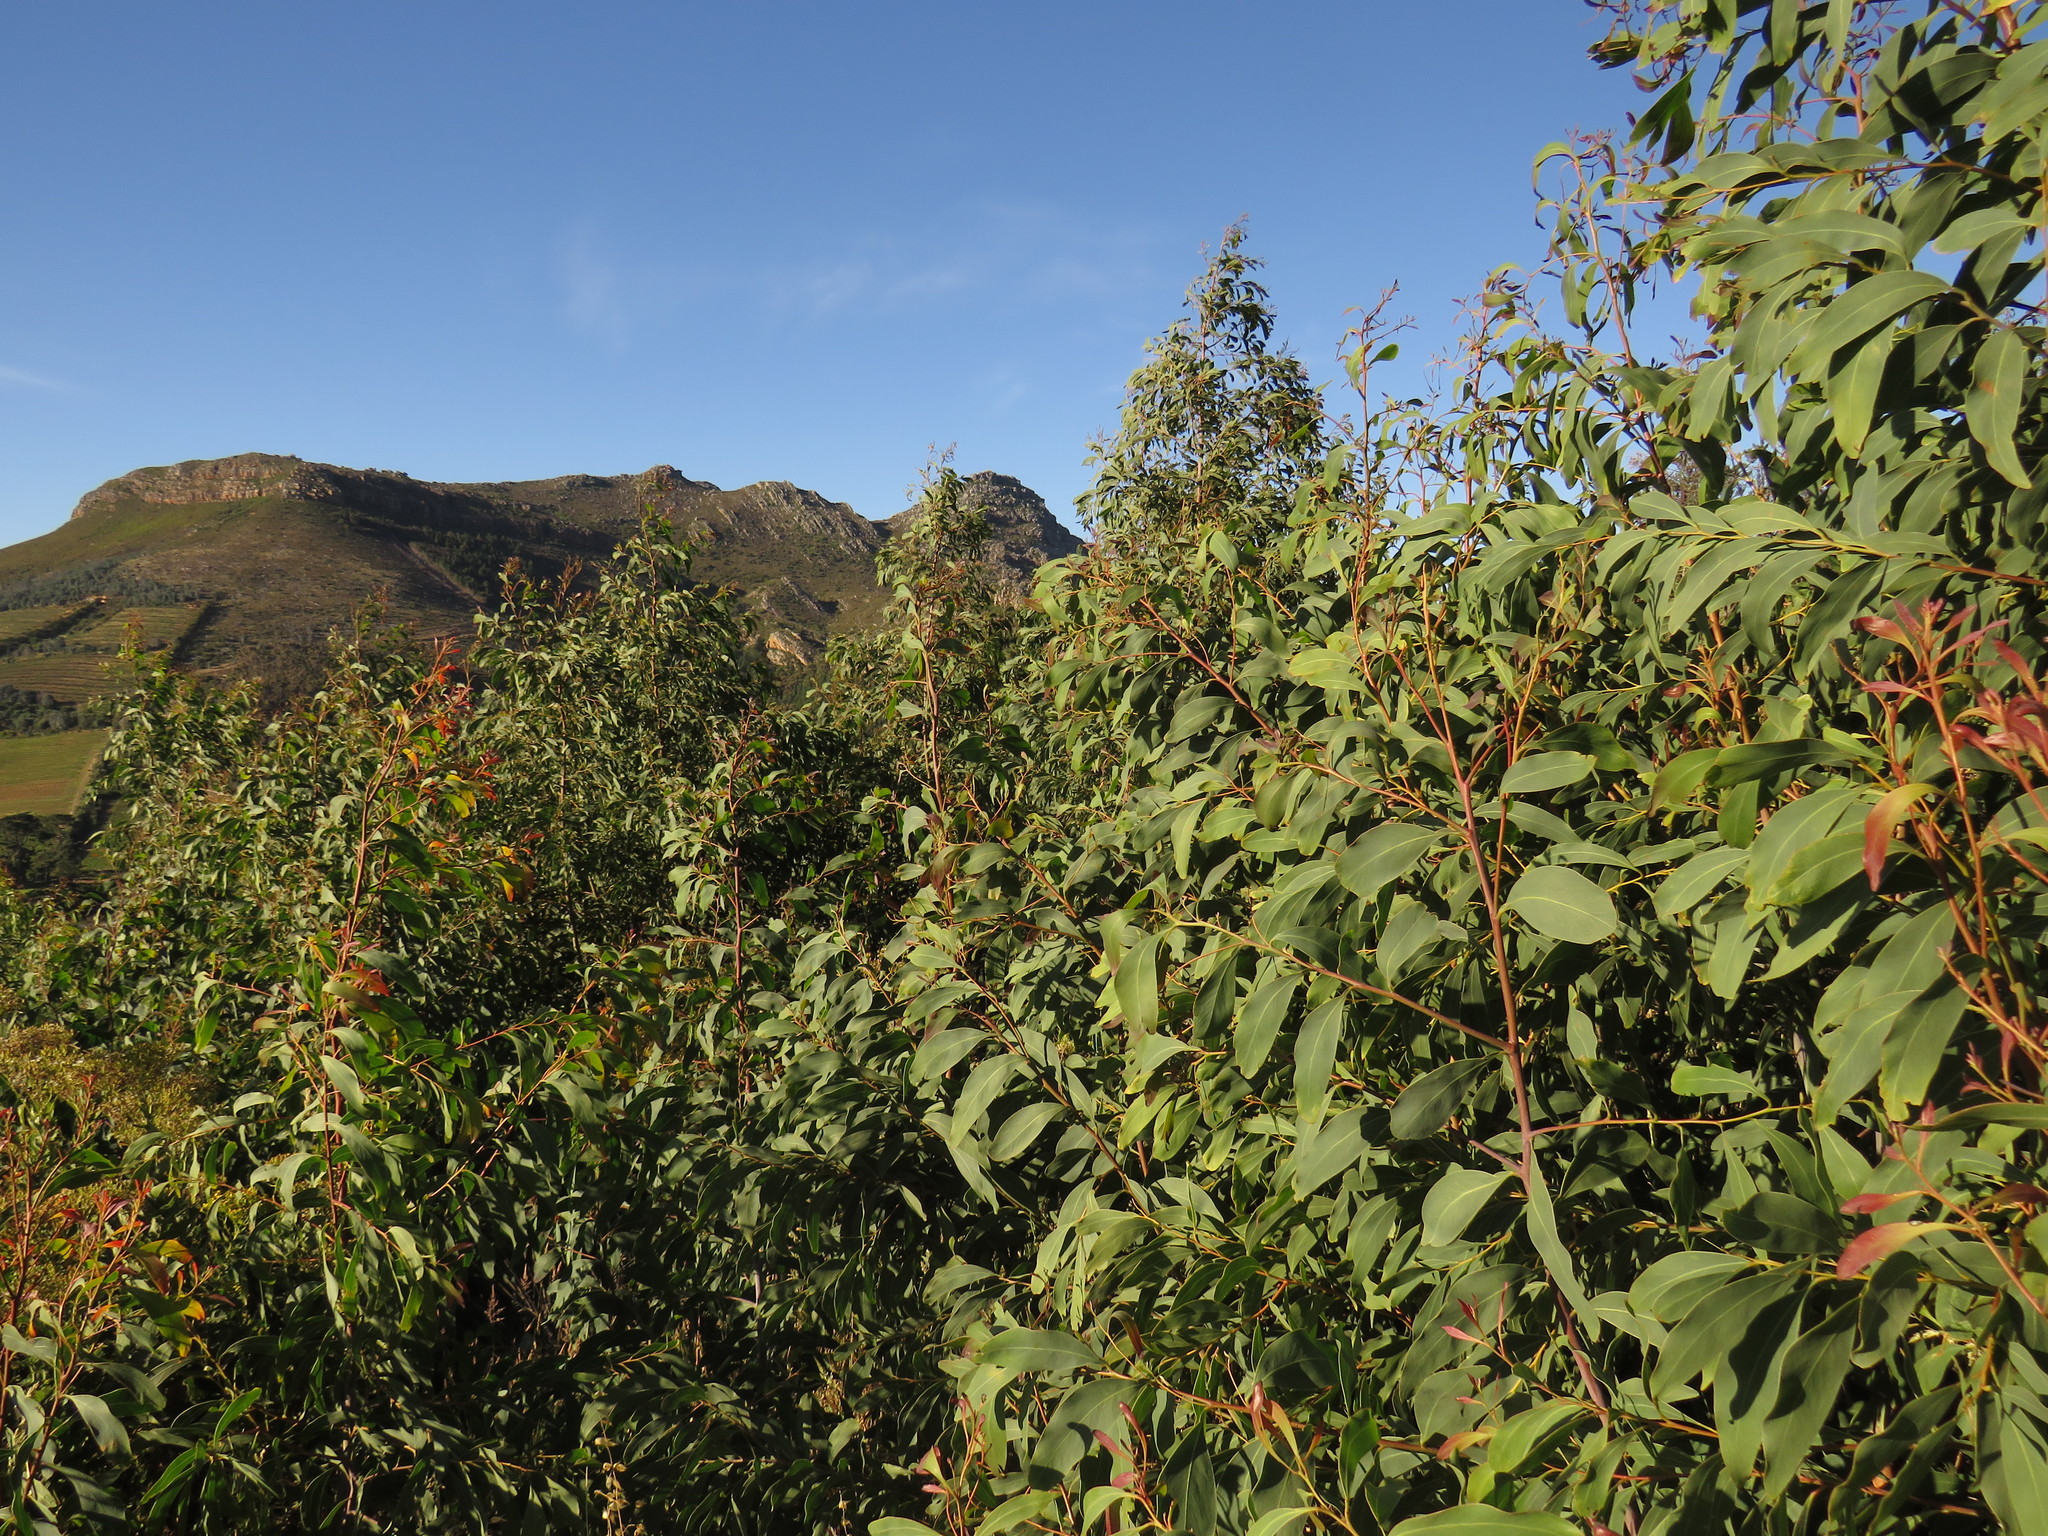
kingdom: Plantae
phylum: Tracheophyta
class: Magnoliopsida
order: Fabales
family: Fabaceae
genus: Acacia
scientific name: Acacia falciformis
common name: Tanning wattle
